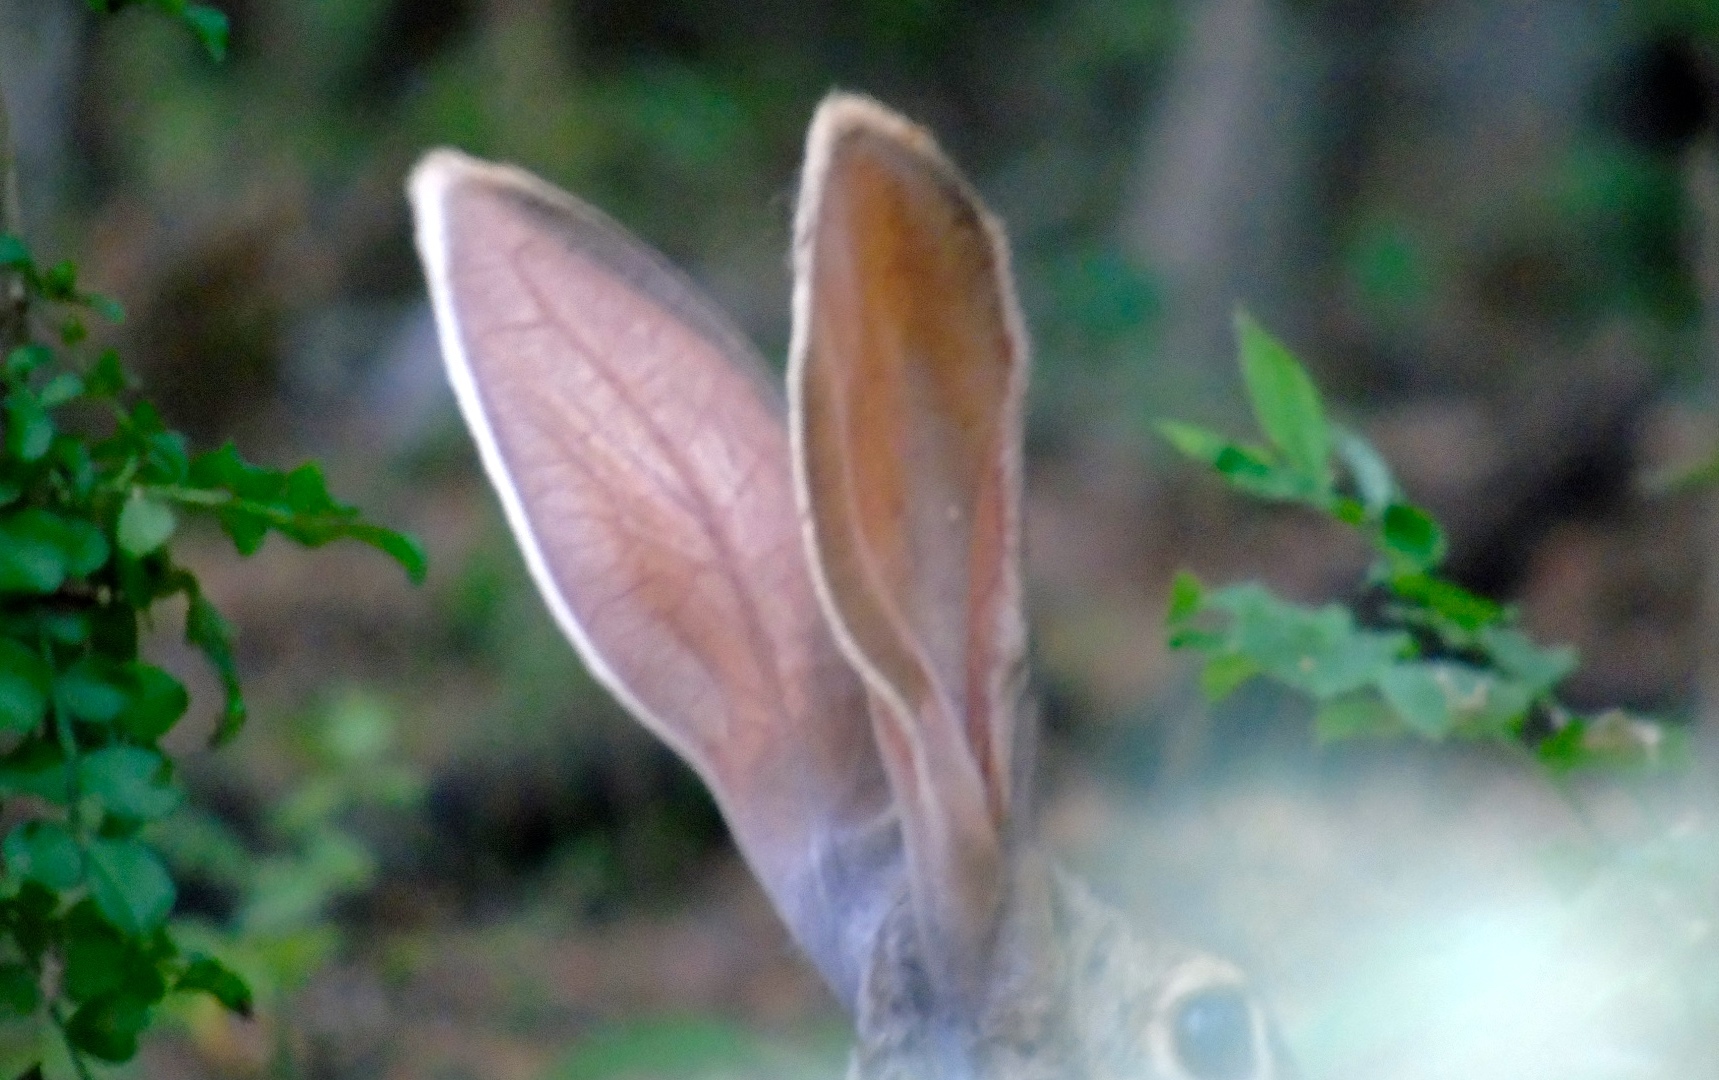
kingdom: Animalia
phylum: Chordata
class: Mammalia
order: Lagomorpha
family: Leporidae
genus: Lepus
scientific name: Lepus alleni
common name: Antelope jackrabbit
